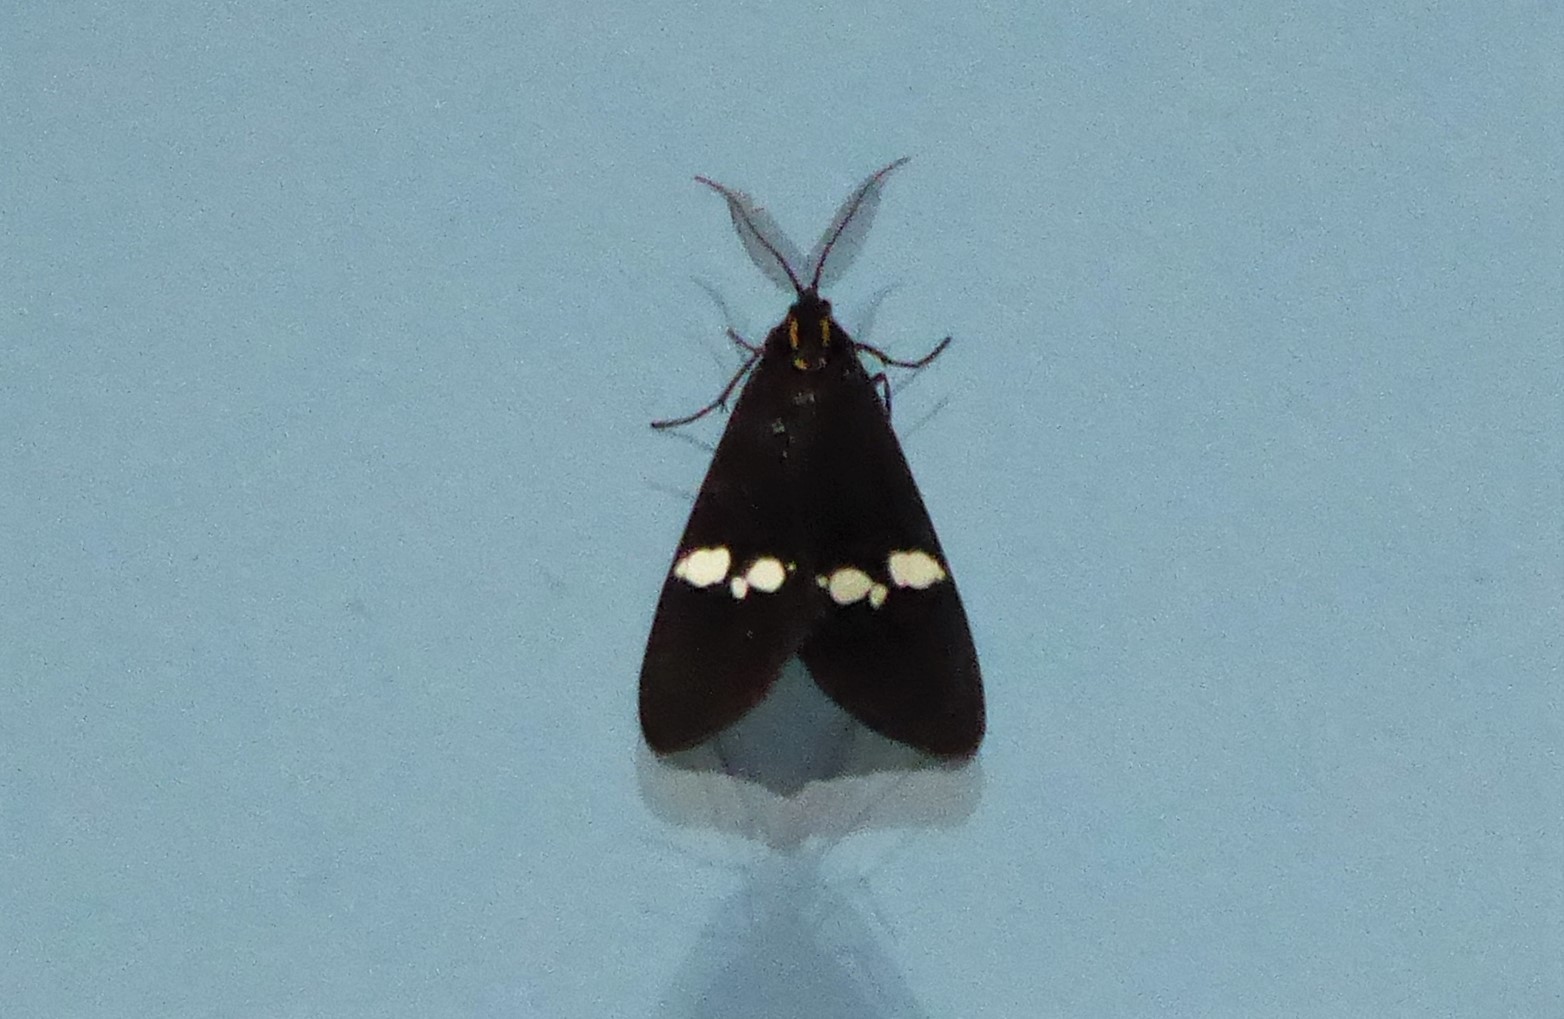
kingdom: Animalia
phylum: Arthropoda
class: Insecta
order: Lepidoptera
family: Erebidae
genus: Nyctemera
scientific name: Nyctemera annulatum
